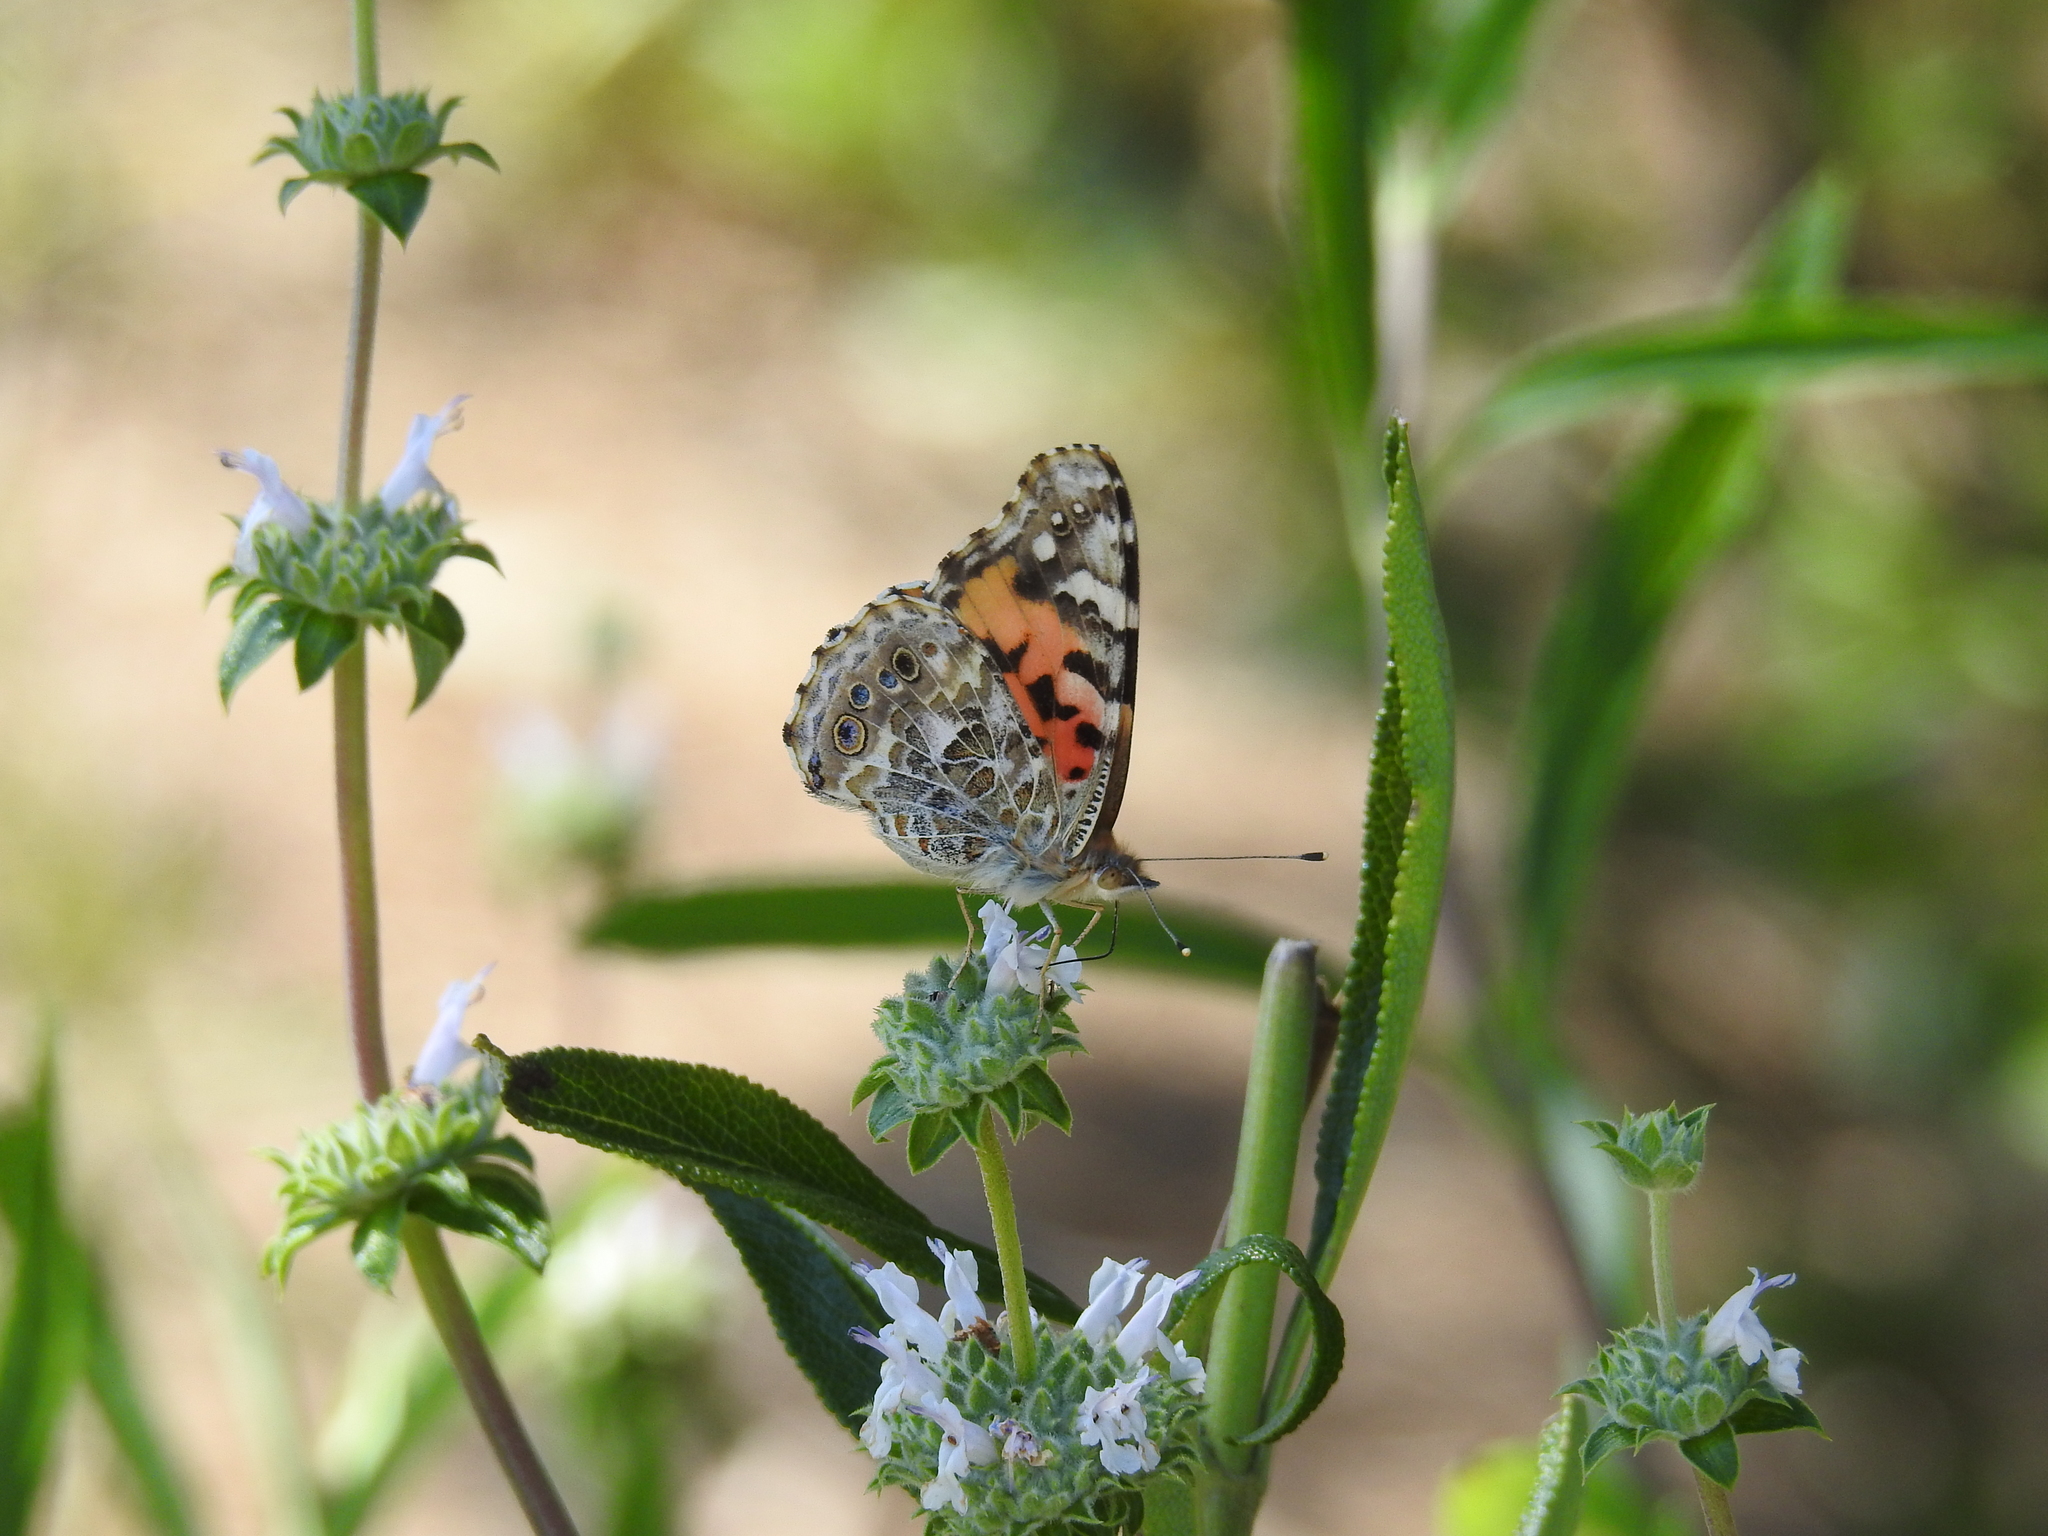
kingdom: Animalia
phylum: Arthropoda
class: Insecta
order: Lepidoptera
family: Nymphalidae
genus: Vanessa
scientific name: Vanessa cardui
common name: Painted lady
